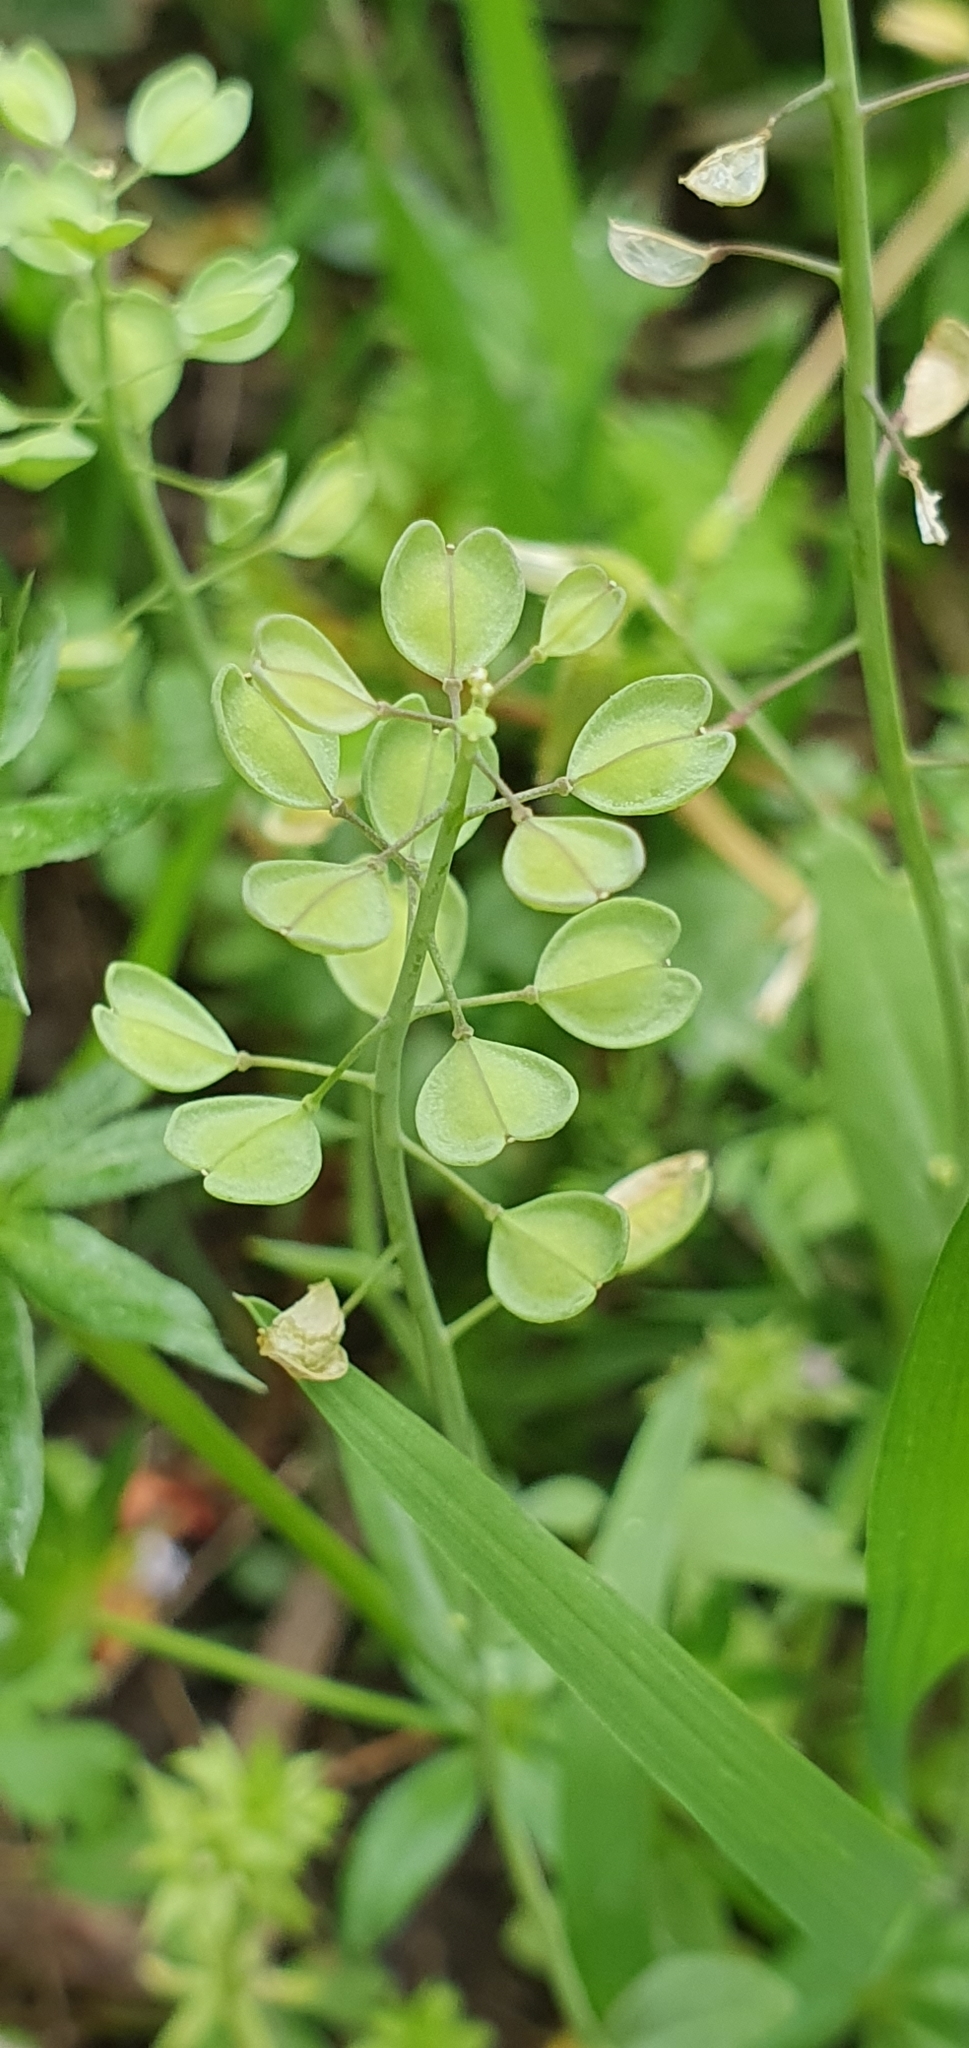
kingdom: Plantae
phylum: Tracheophyta
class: Magnoliopsida
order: Brassicales
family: Brassicaceae
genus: Noccaea
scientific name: Noccaea perfoliata
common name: Perfoliate pennycress
